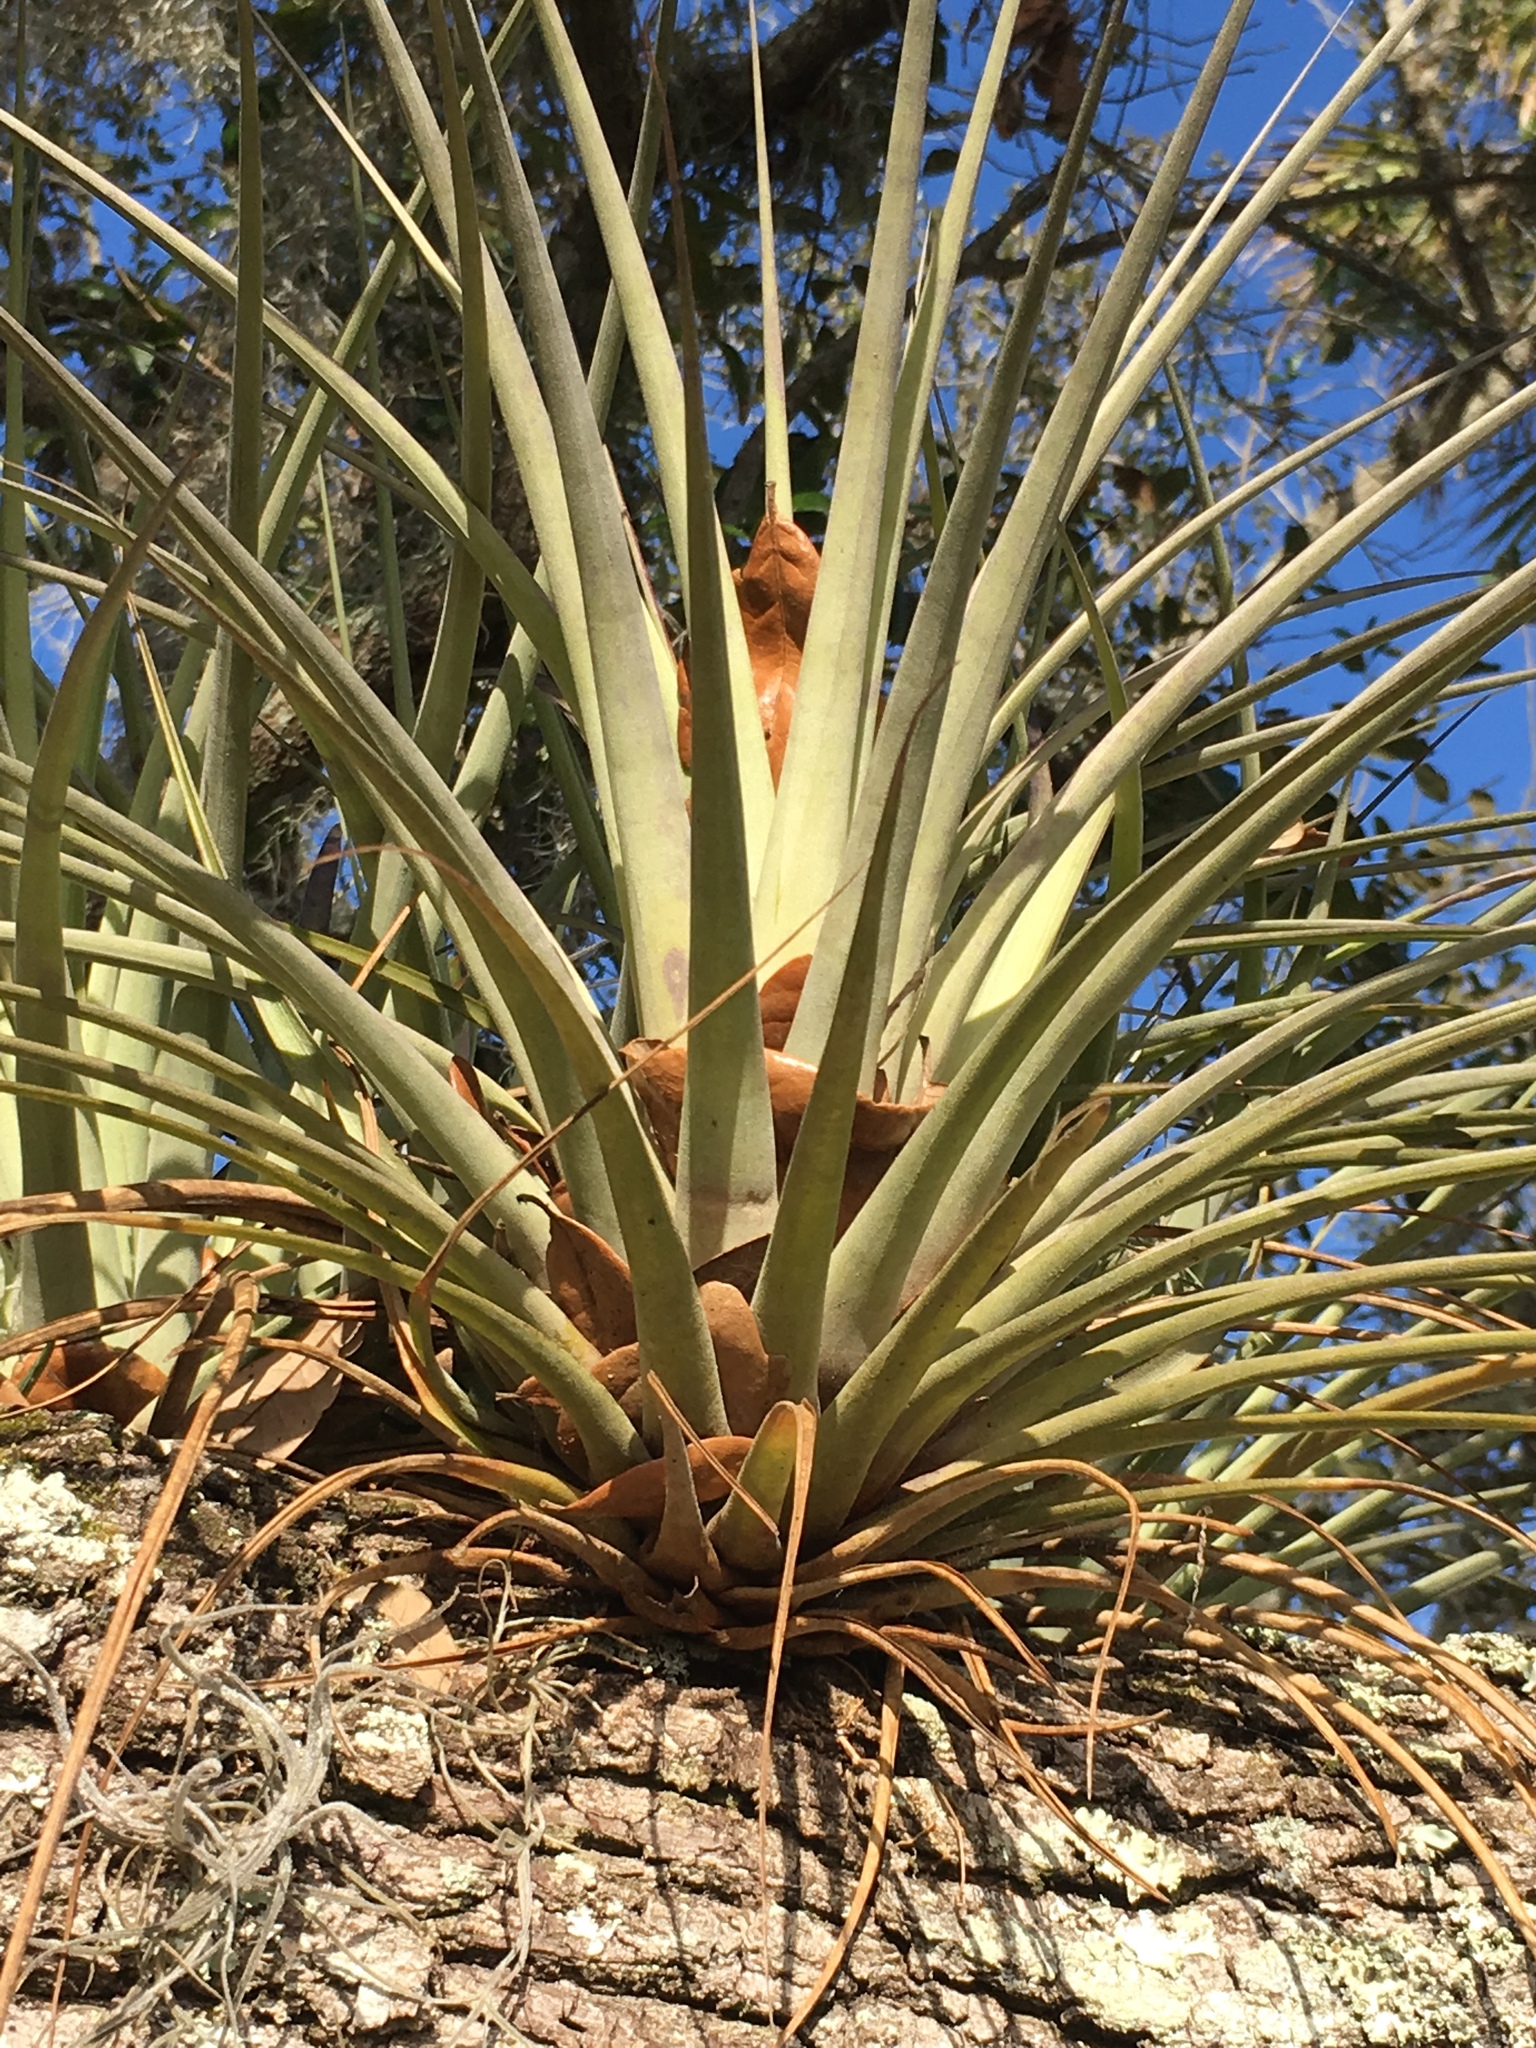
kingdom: Plantae
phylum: Tracheophyta
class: Liliopsida
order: Poales
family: Bromeliaceae
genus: Tillandsia
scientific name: Tillandsia fasciculata
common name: Giant airplant
